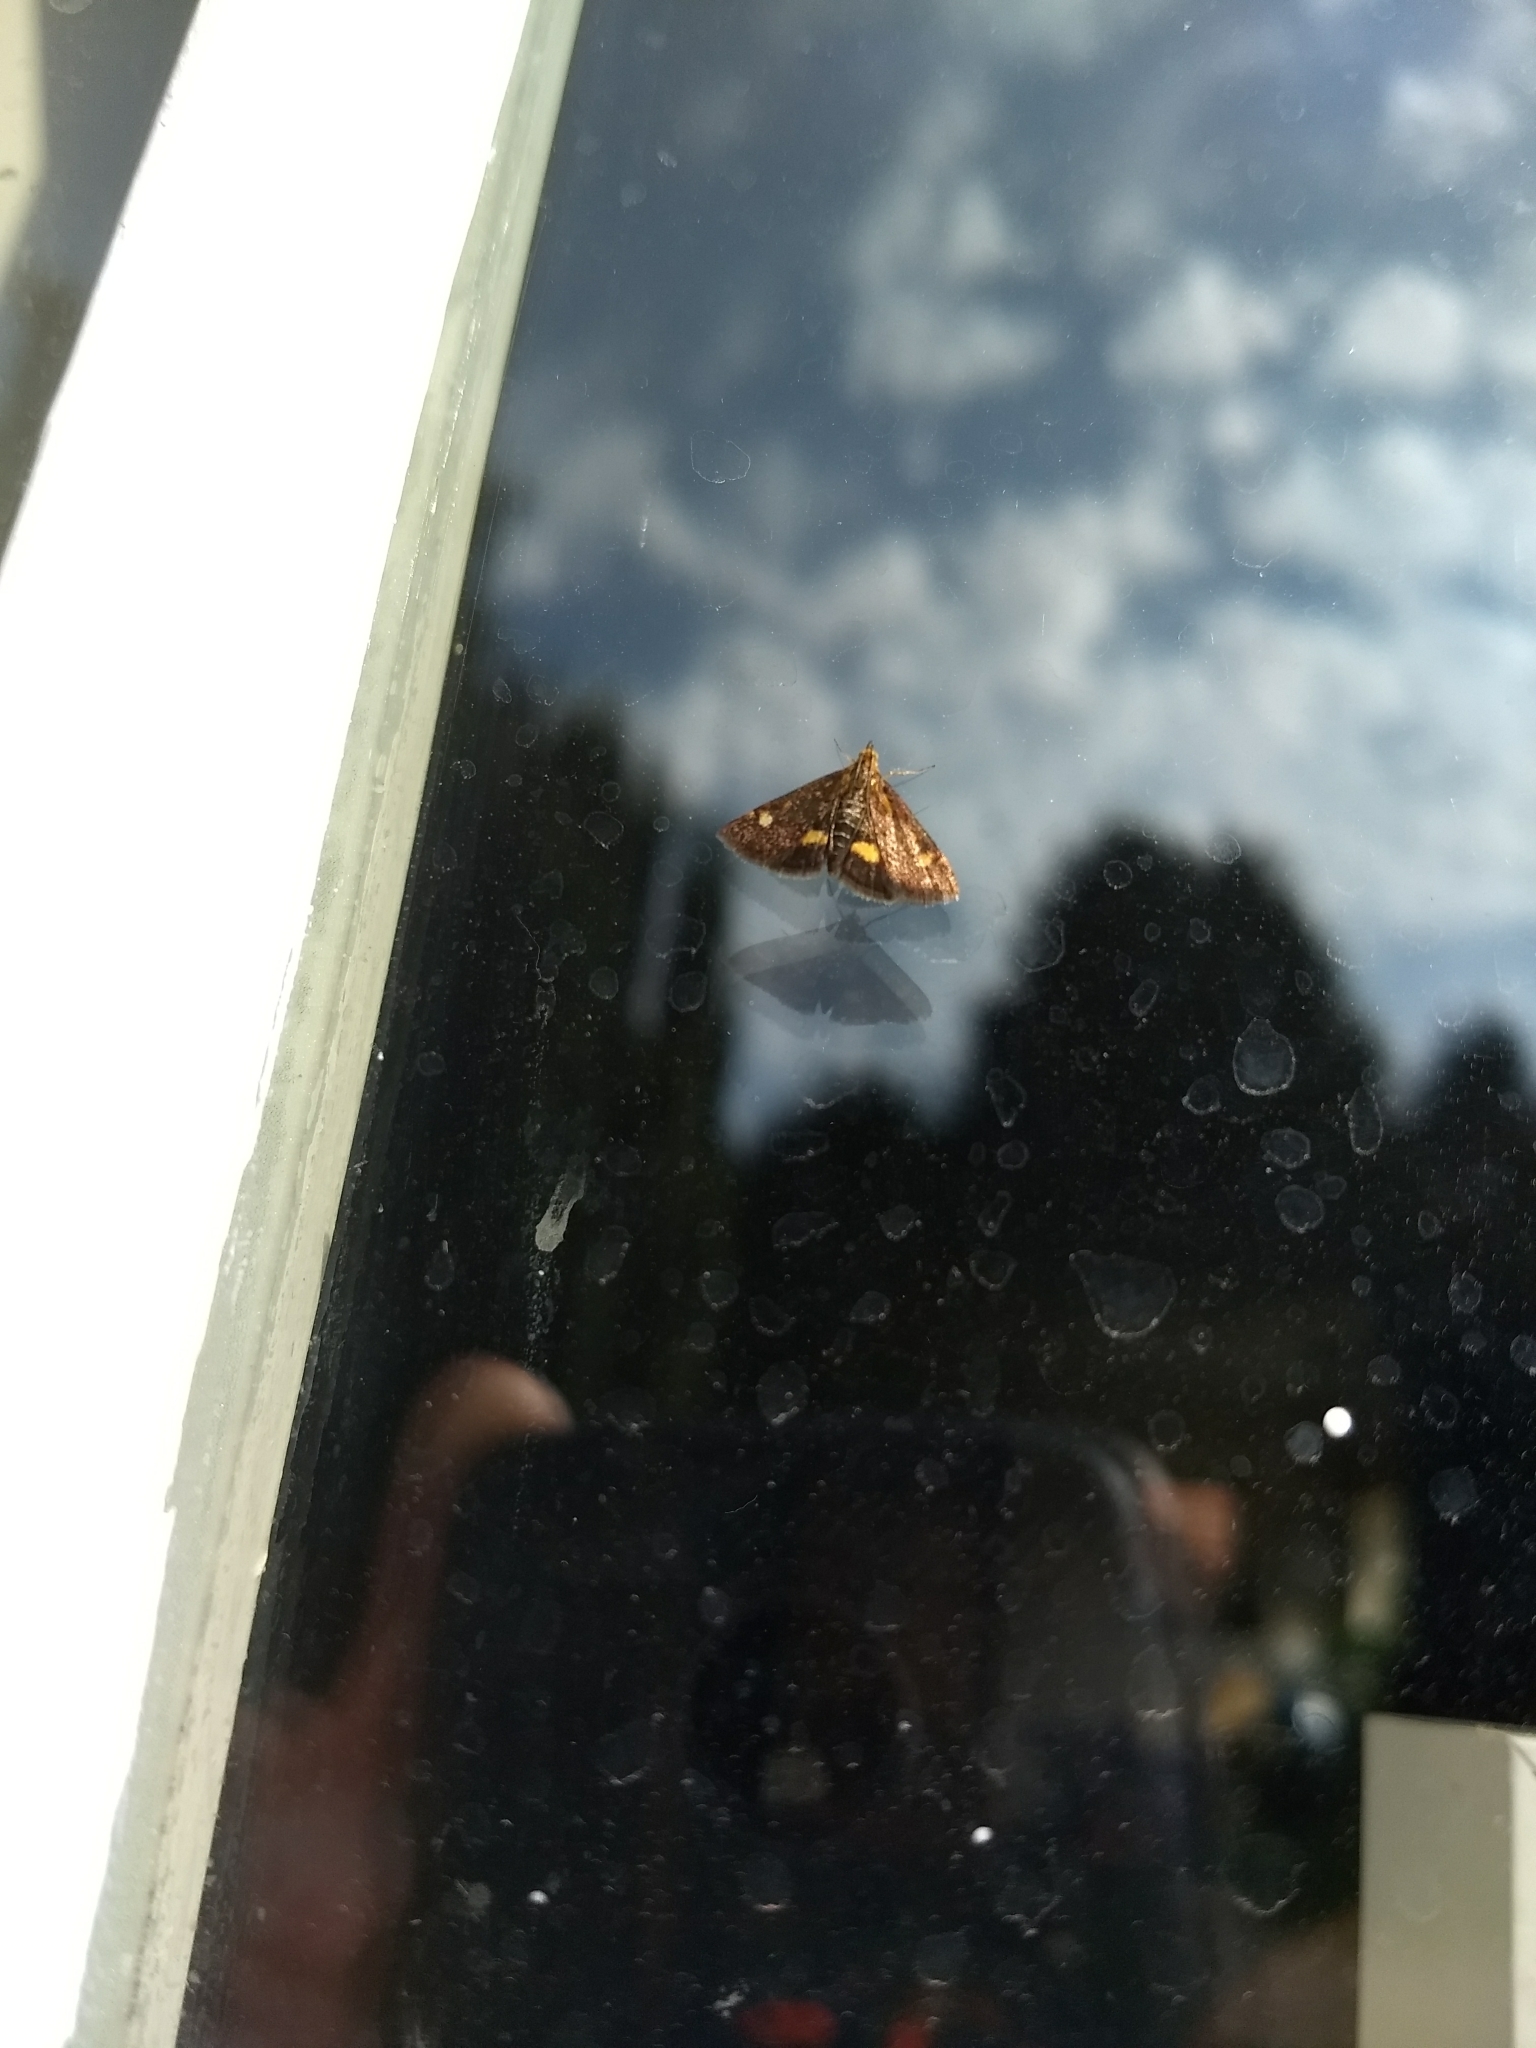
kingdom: Animalia
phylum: Arthropoda
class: Insecta
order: Lepidoptera
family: Crambidae
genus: Pyrausta
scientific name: Pyrausta aurata
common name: Small purple & gold
